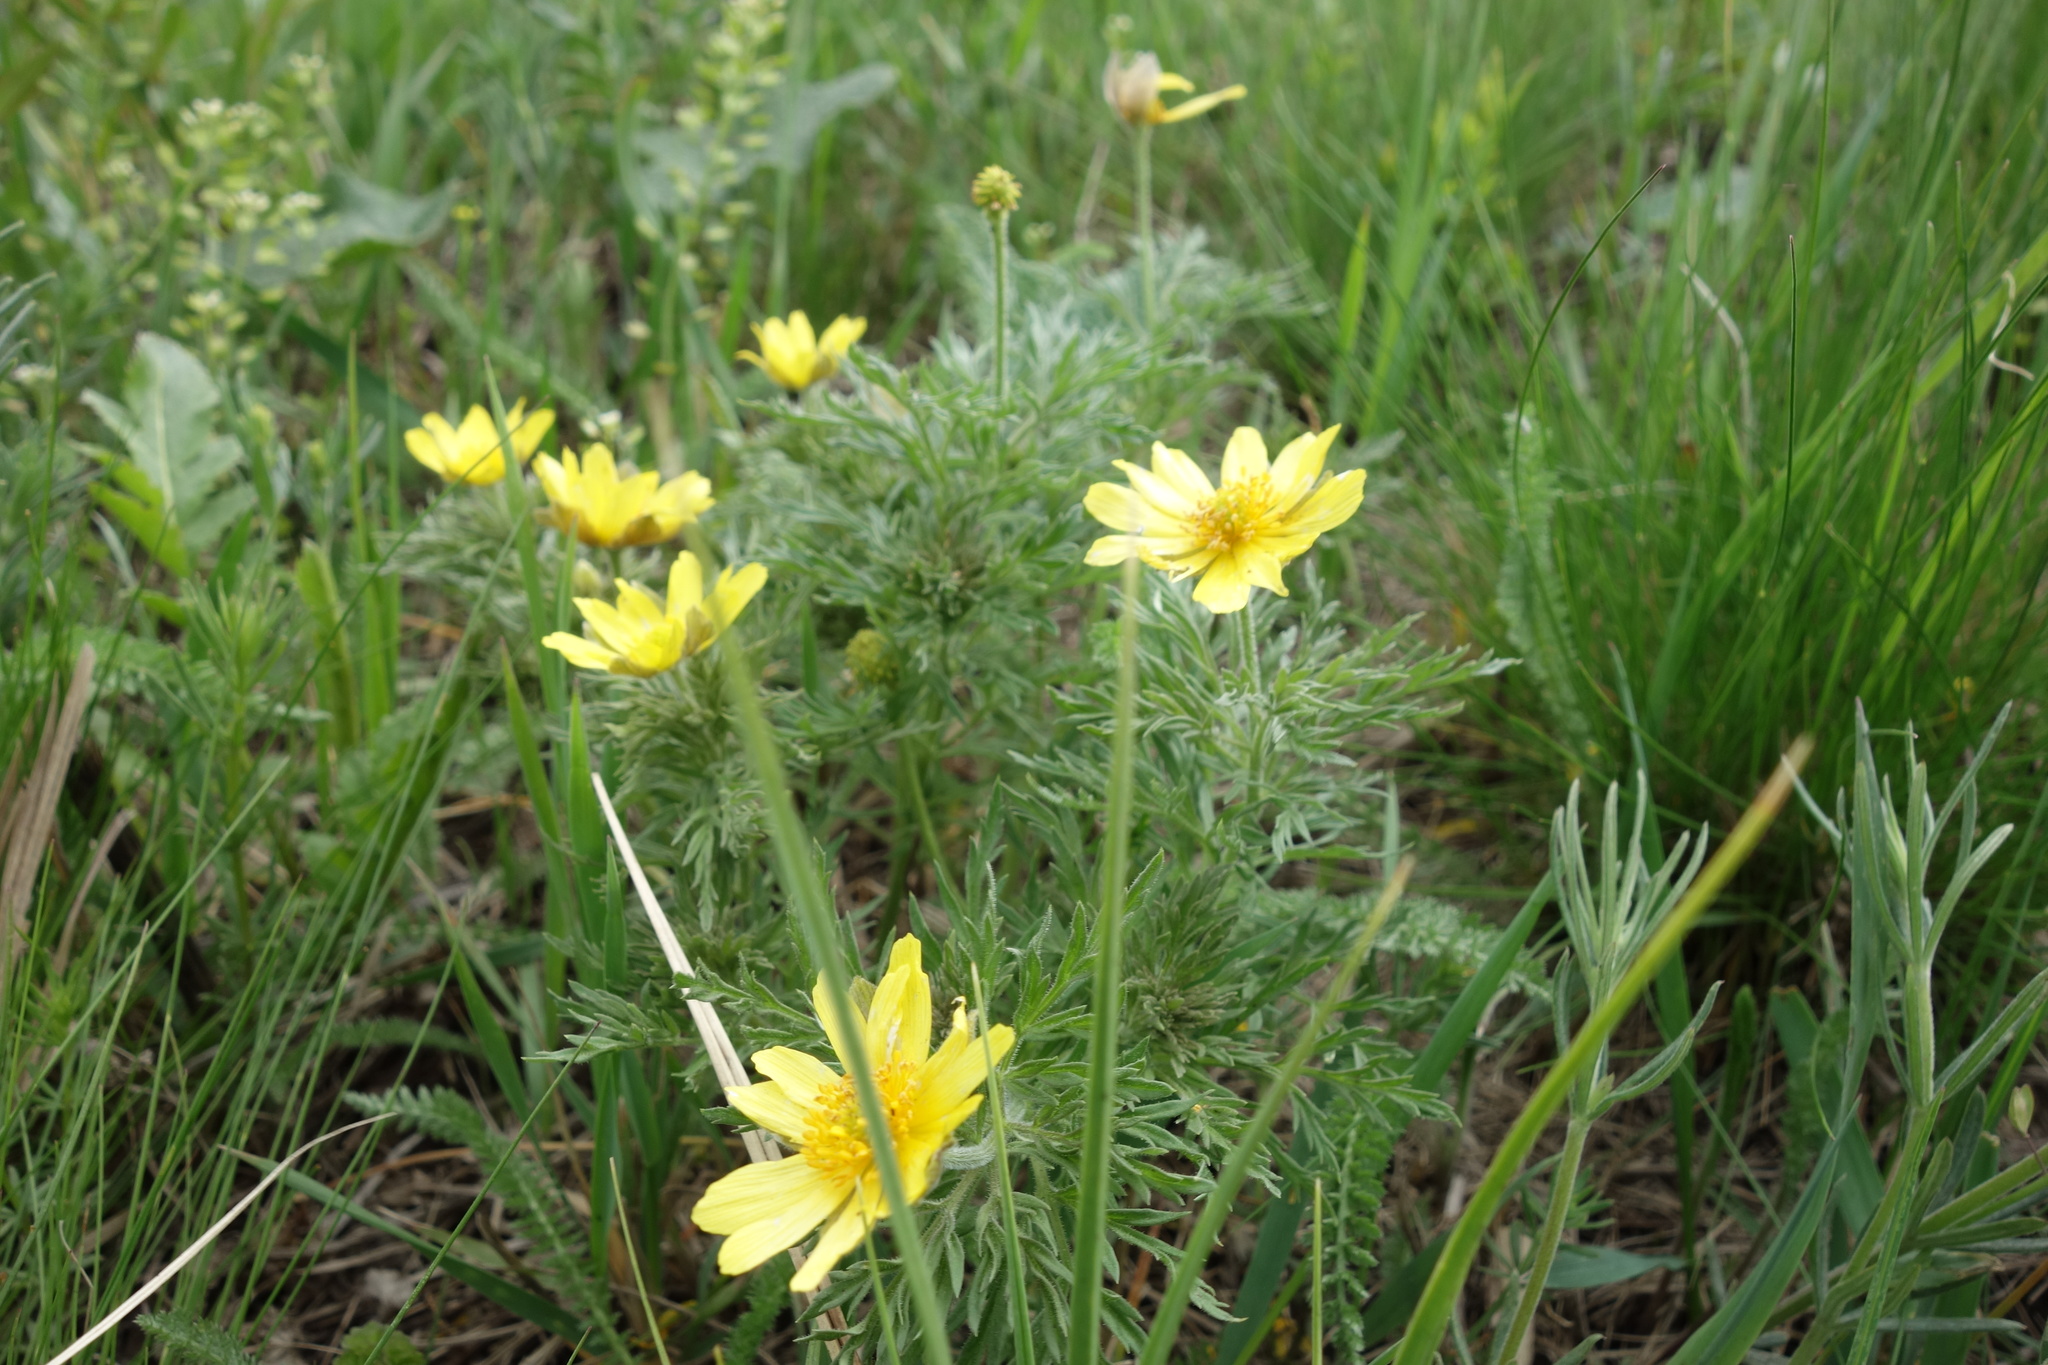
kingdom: Plantae
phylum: Tracheophyta
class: Magnoliopsida
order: Ranunculales
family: Ranunculaceae
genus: Adonis
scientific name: Adonis volgensis
